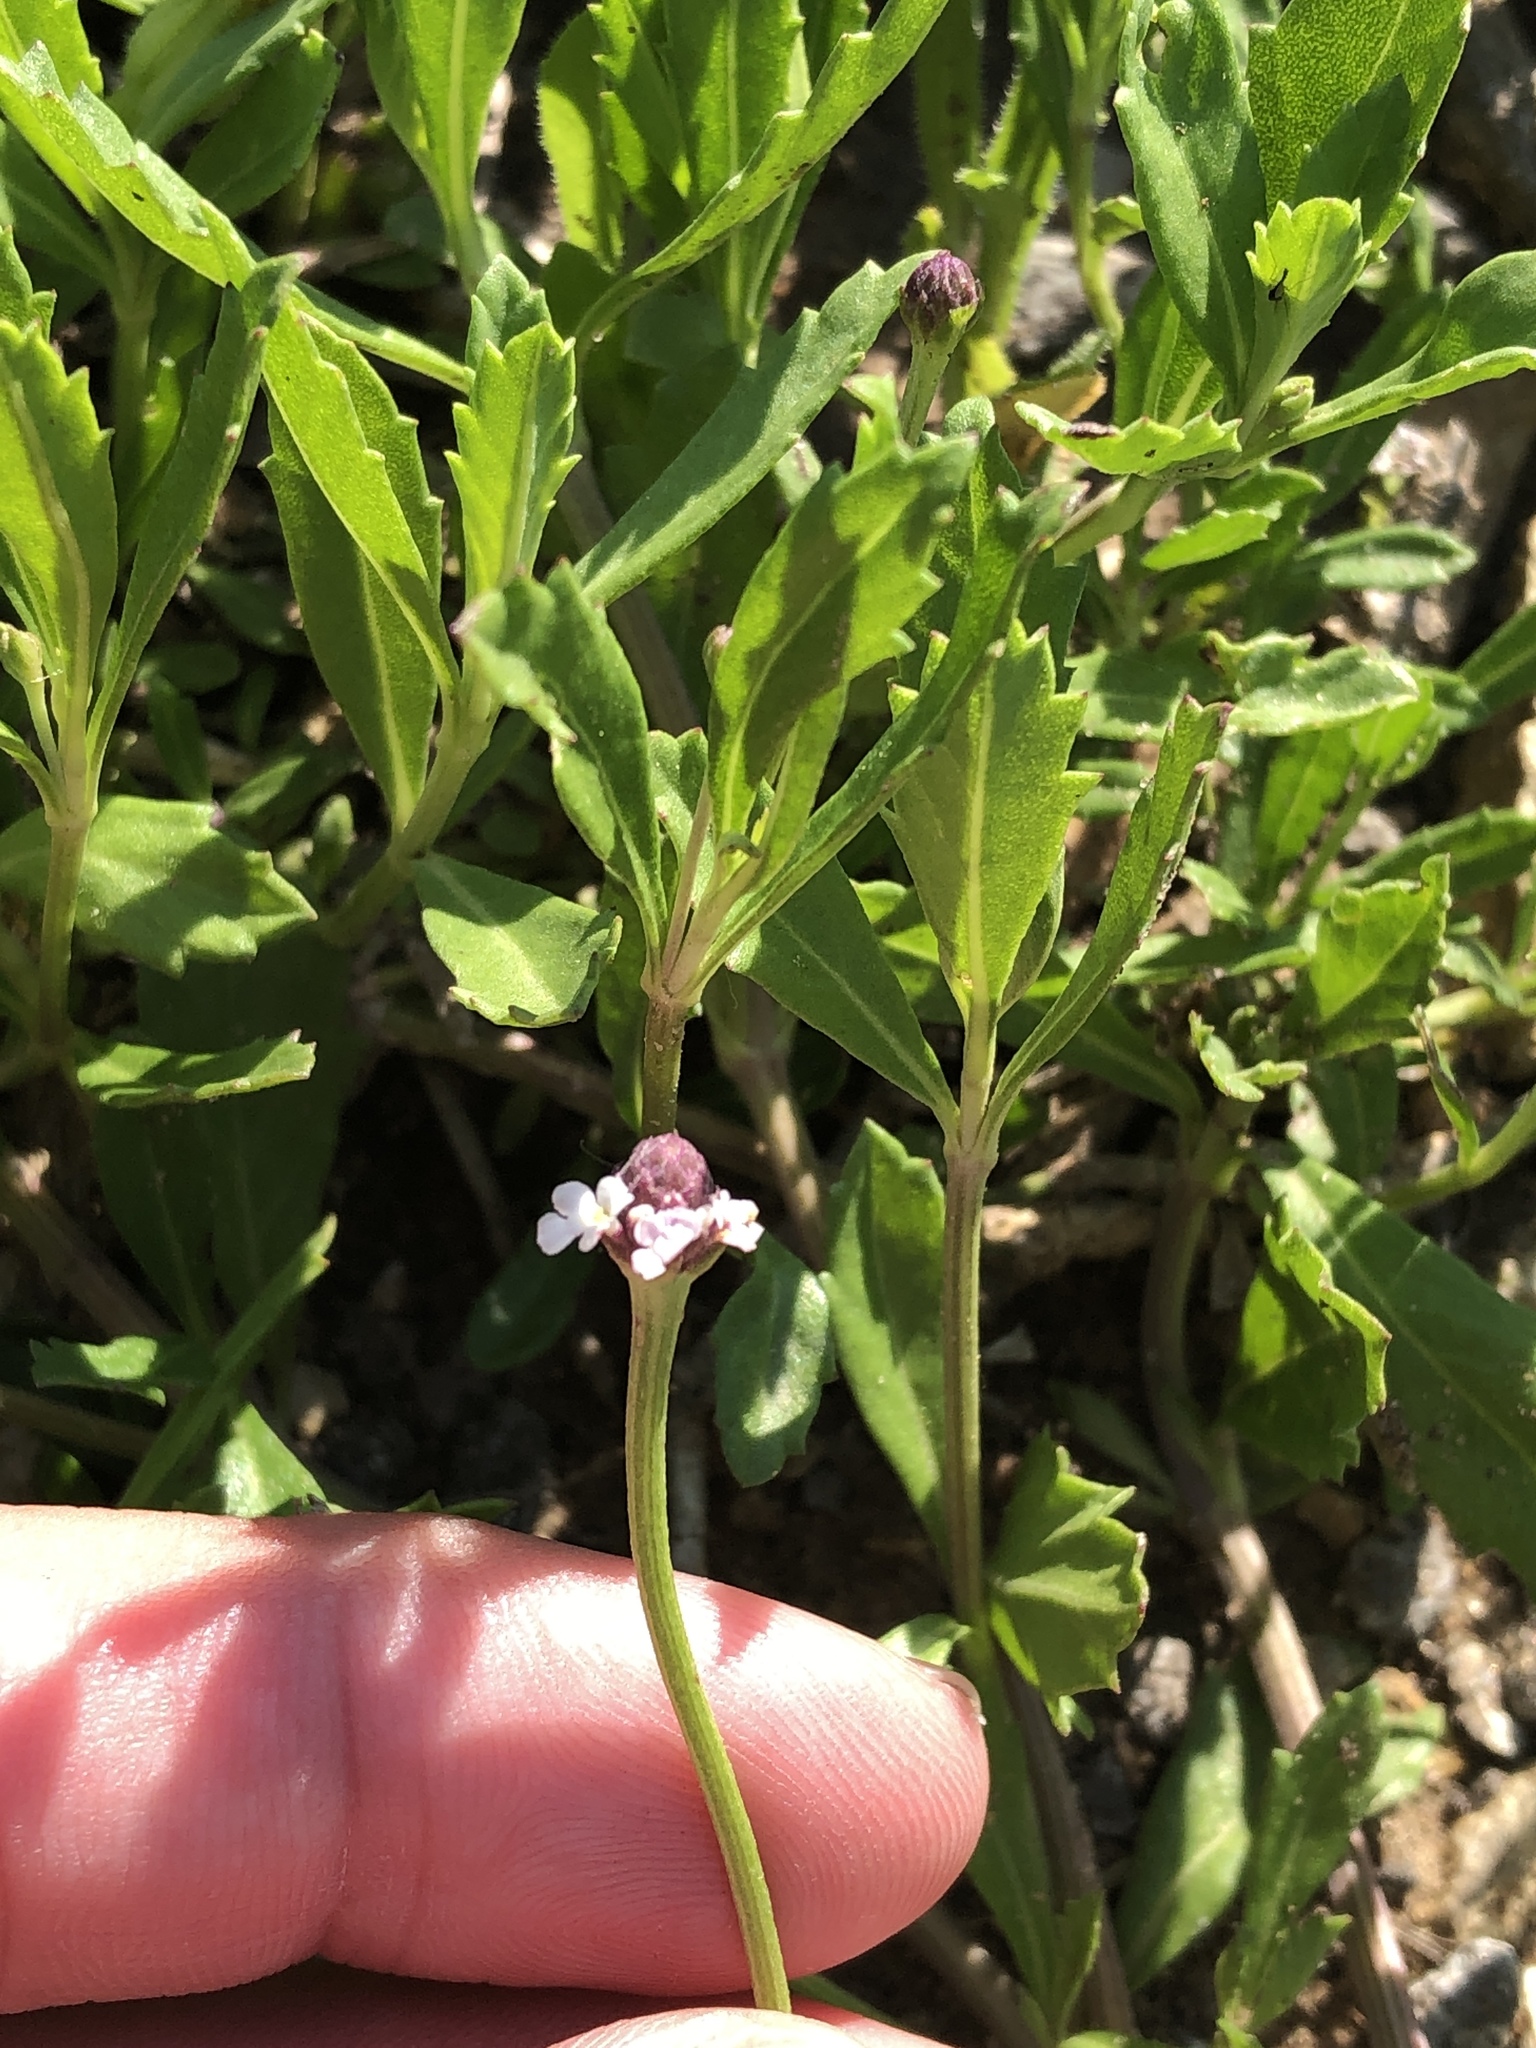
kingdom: Plantae
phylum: Tracheophyta
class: Magnoliopsida
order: Lamiales
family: Verbenaceae
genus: Phyla
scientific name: Phyla nodiflora
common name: Frogfruit
